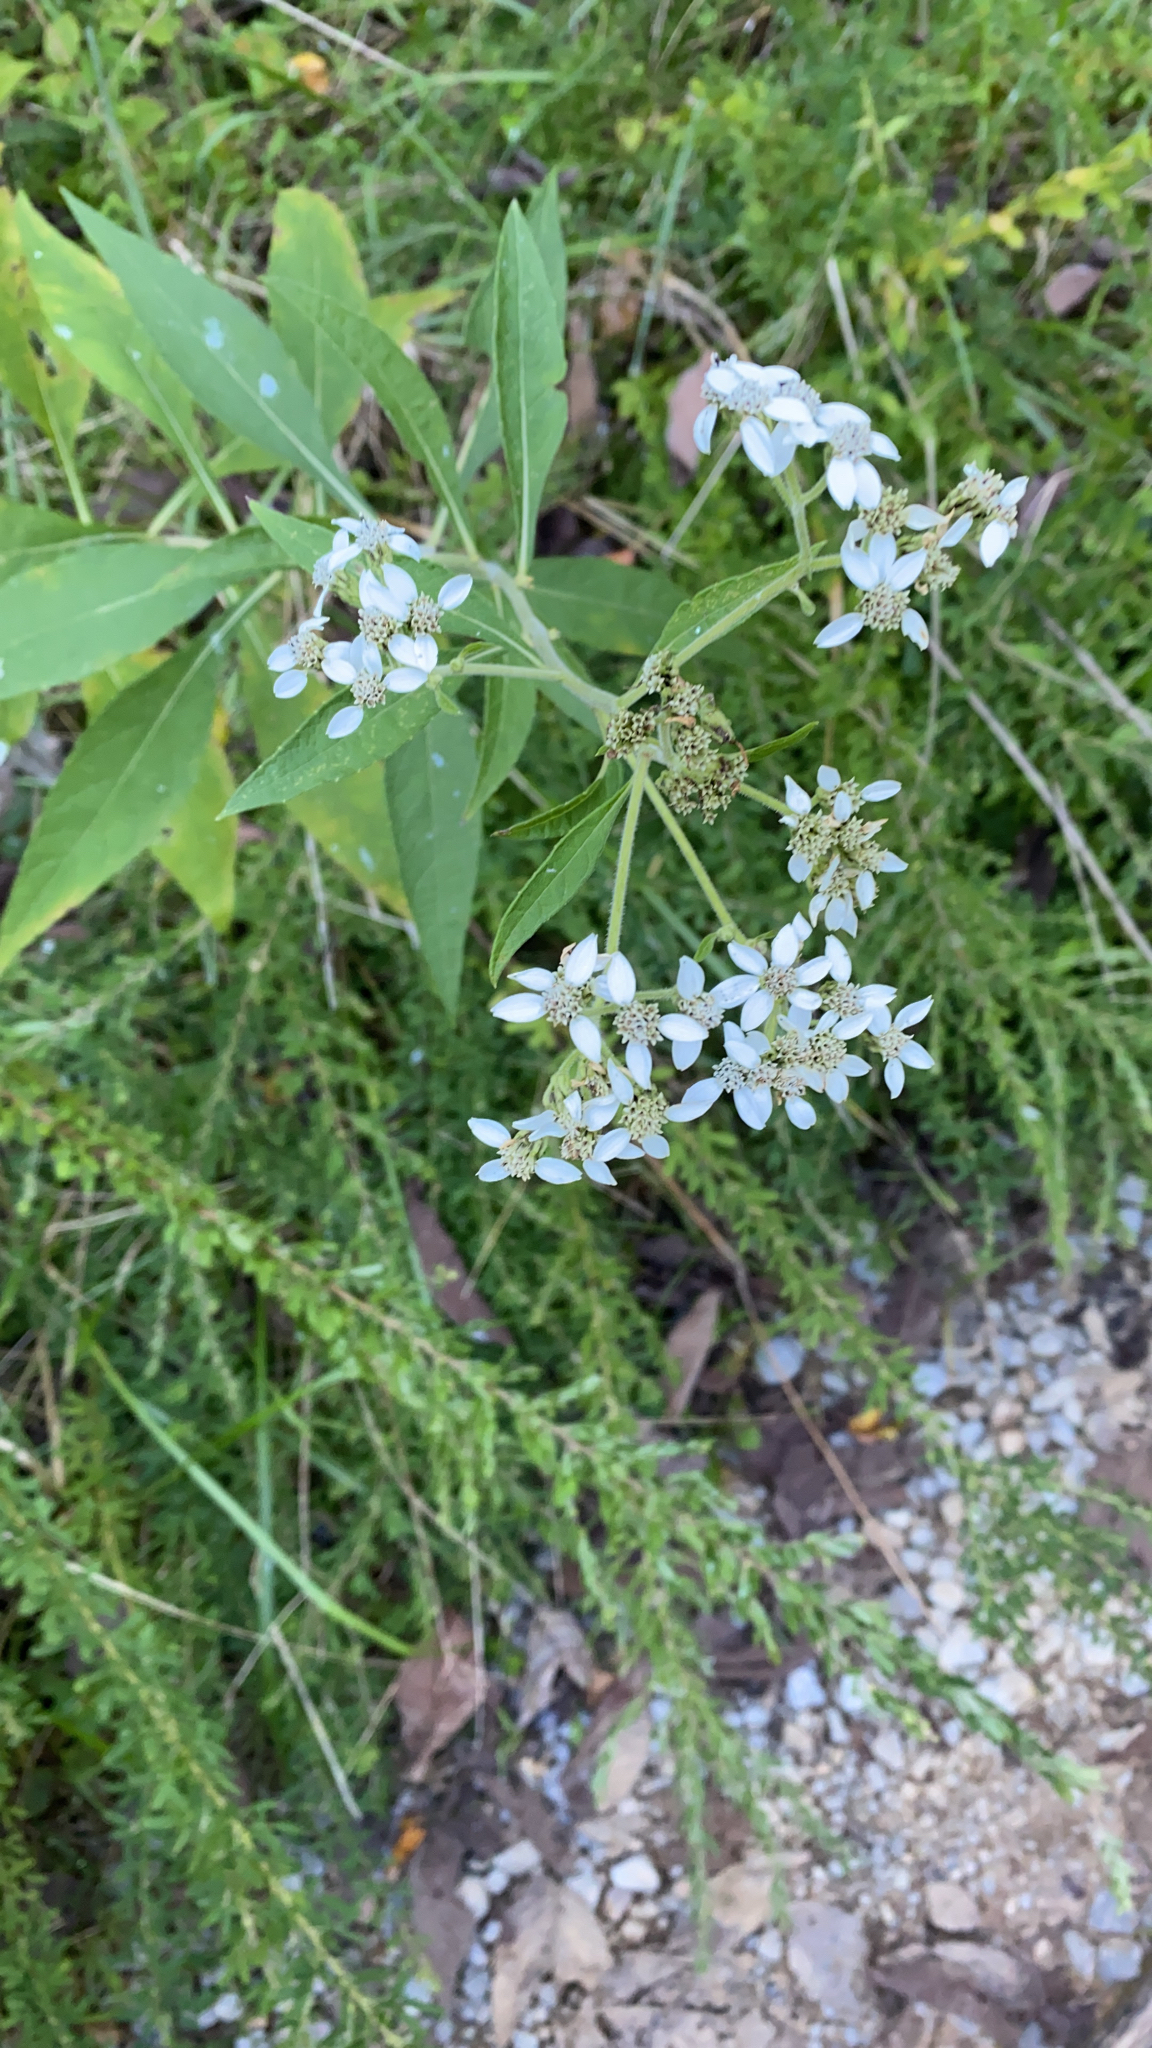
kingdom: Plantae
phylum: Tracheophyta
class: Magnoliopsida
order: Asterales
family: Asteraceae
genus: Verbesina
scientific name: Verbesina virginica
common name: Frostweed
